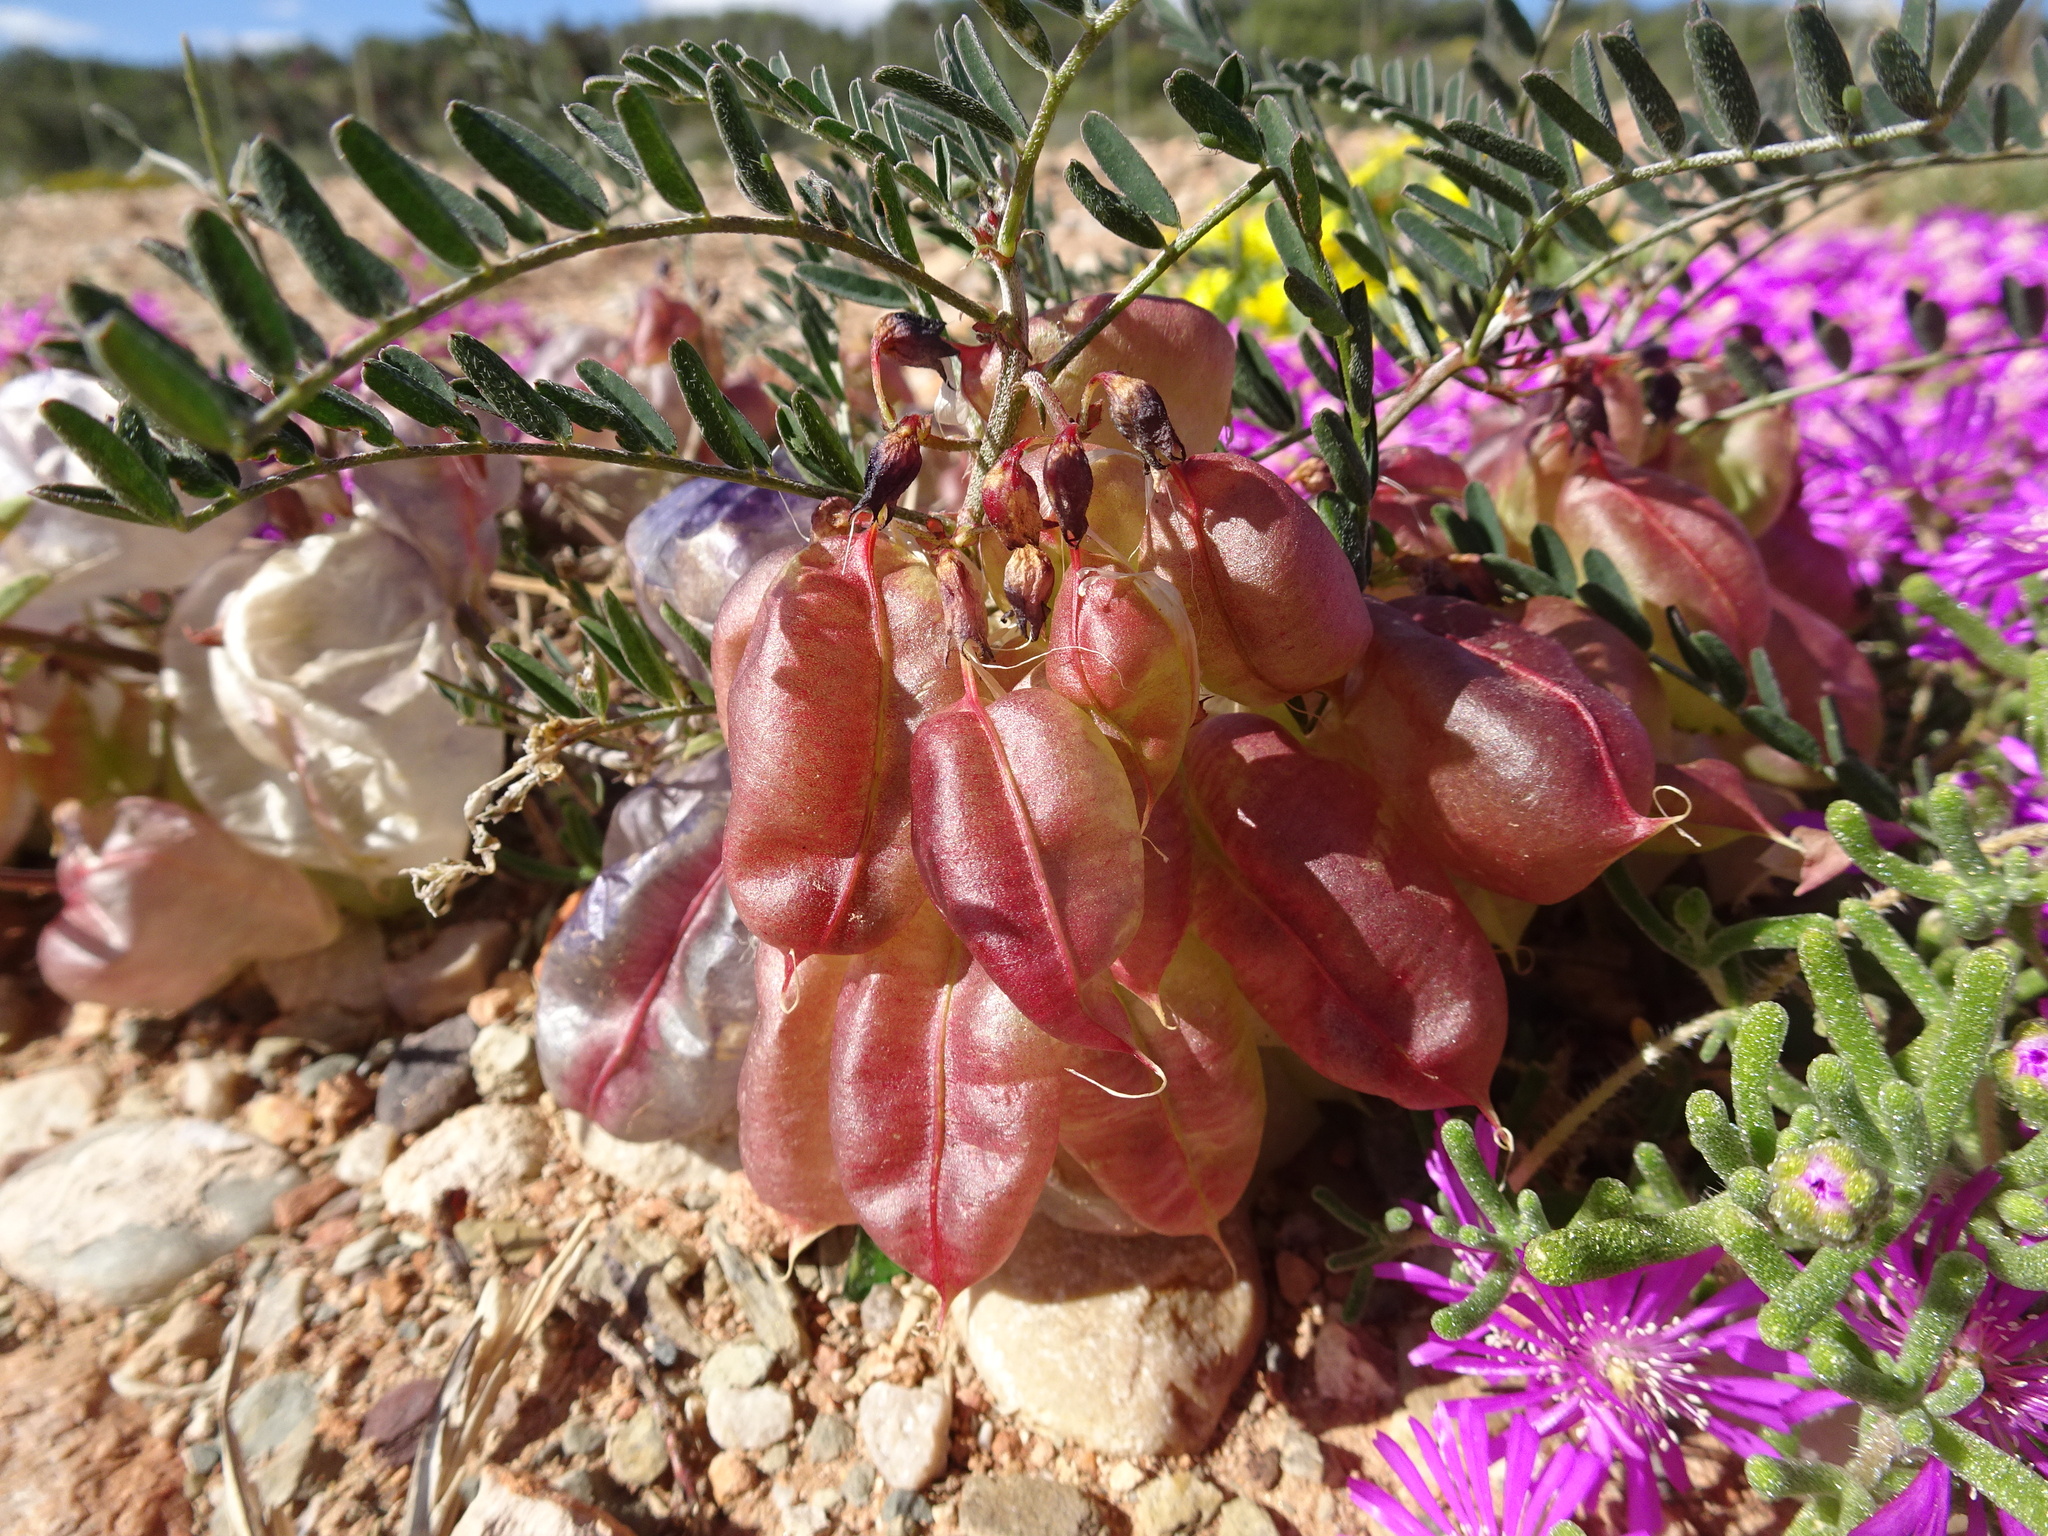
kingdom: Plantae
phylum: Tracheophyta
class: Magnoliopsida
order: Fabales
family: Fabaceae
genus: Lessertia
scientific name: Lessertia frutescens
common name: Balloon-pea
